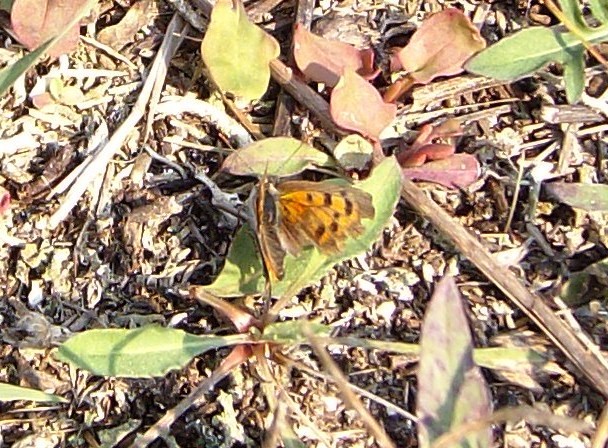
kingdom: Animalia
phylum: Arthropoda
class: Insecta
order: Lepidoptera
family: Lycaenidae
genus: Lycaena
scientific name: Lycaena hypophlaeas
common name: American copper
